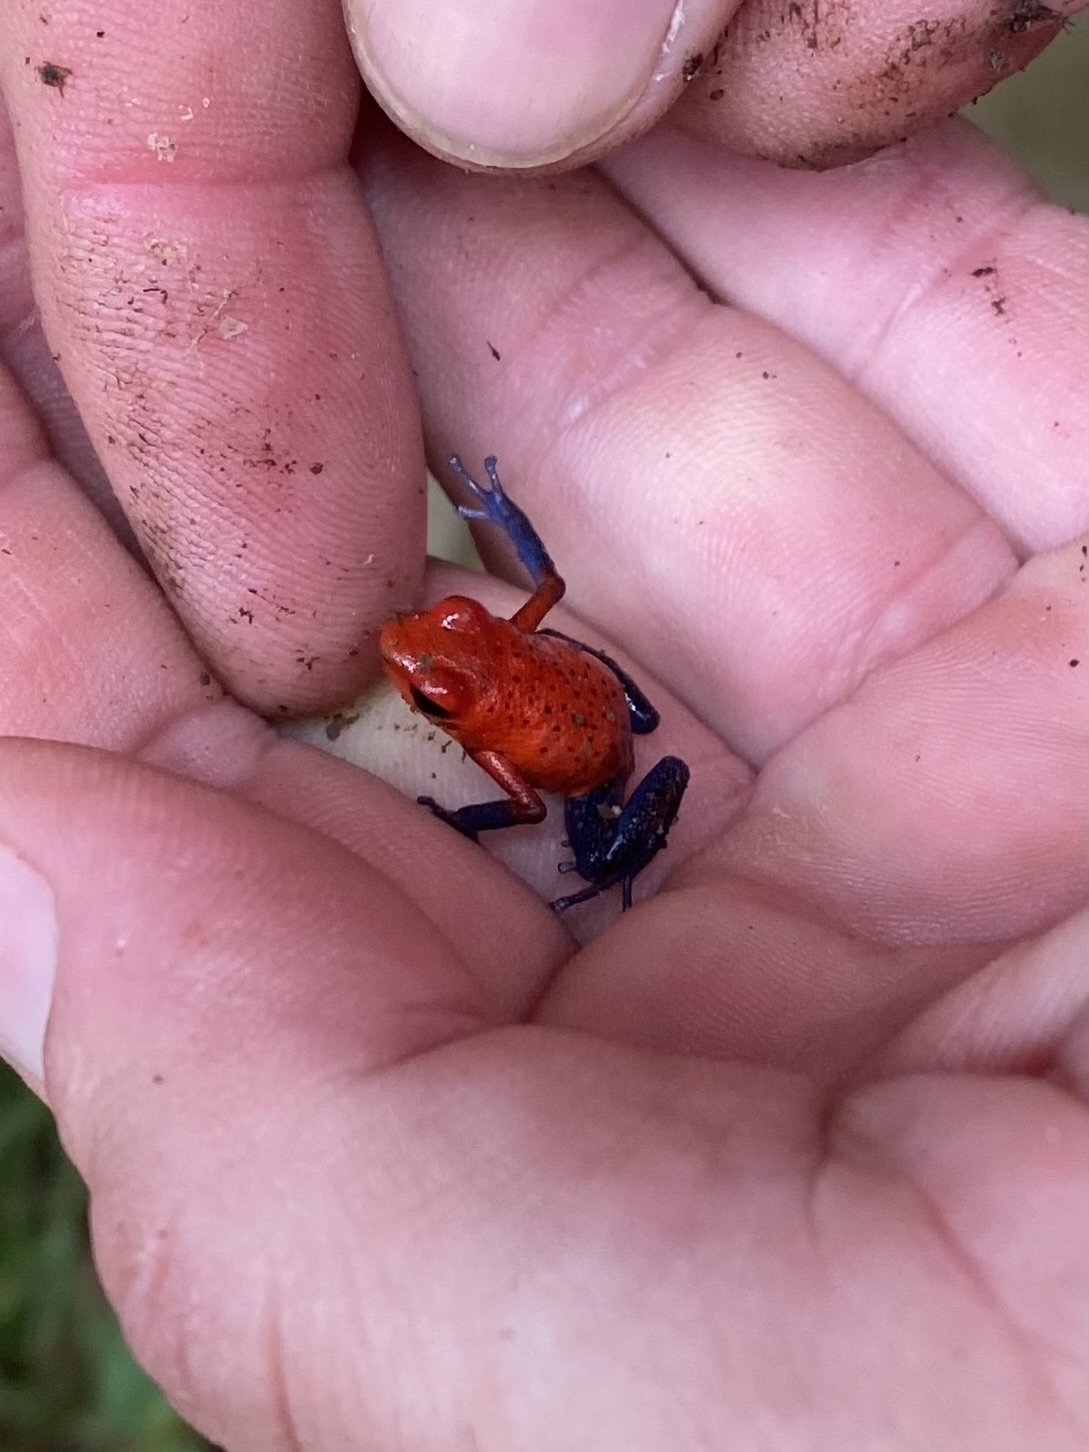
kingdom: Animalia
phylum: Chordata
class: Amphibia
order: Anura
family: Dendrobatidae
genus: Oophaga
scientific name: Oophaga pumilio
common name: Flaming poison frog
